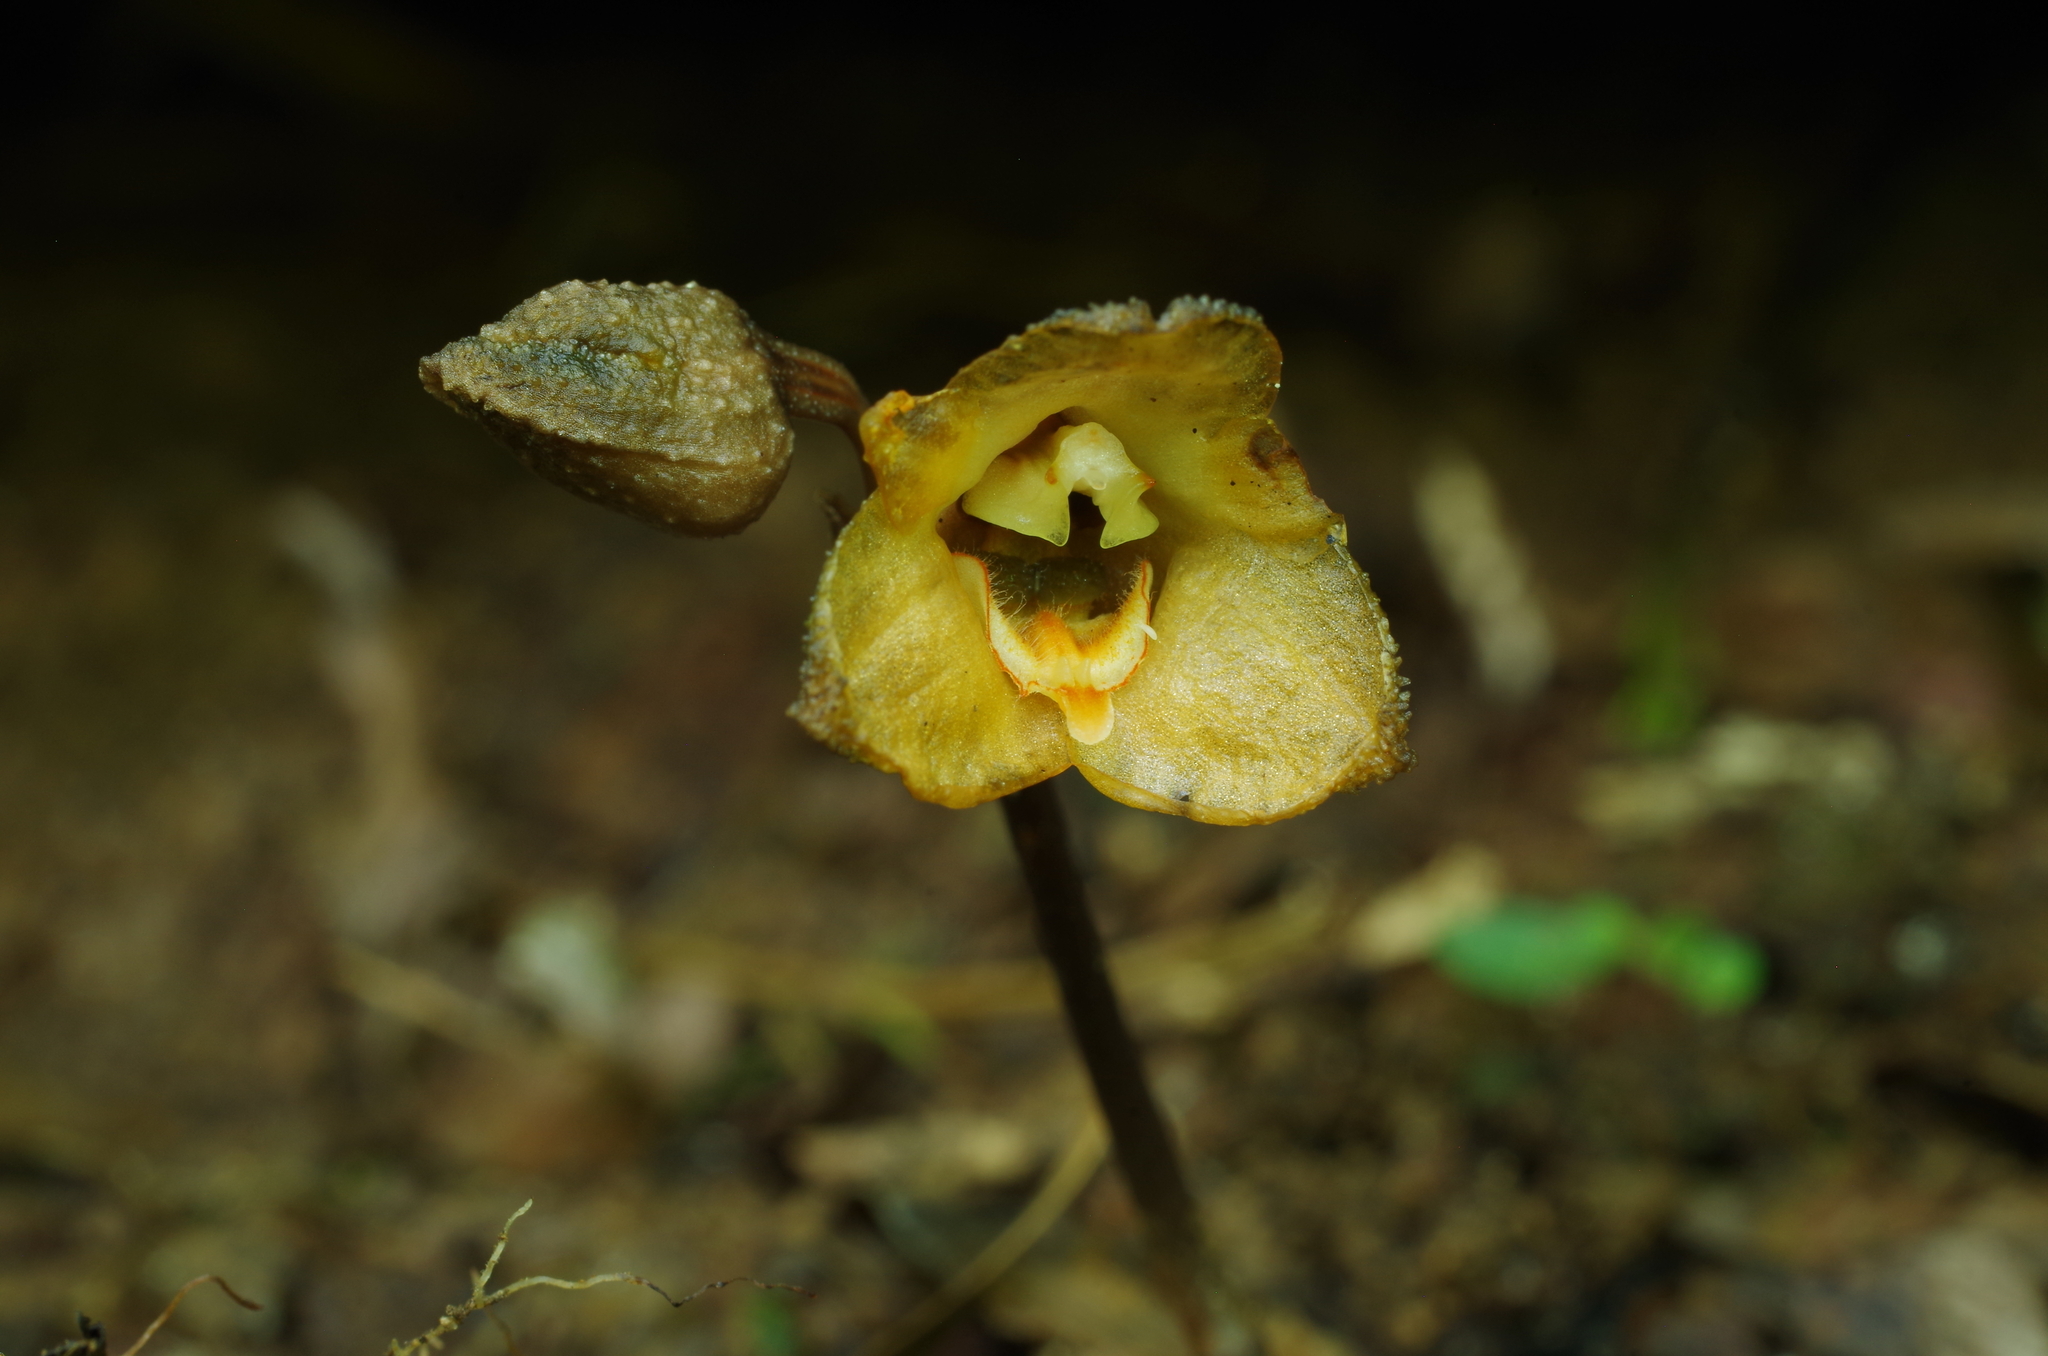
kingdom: Plantae
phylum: Tracheophyta
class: Liliopsida
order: Asparagales
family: Orchidaceae
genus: Gastrodia
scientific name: Gastrodia shimizuana
